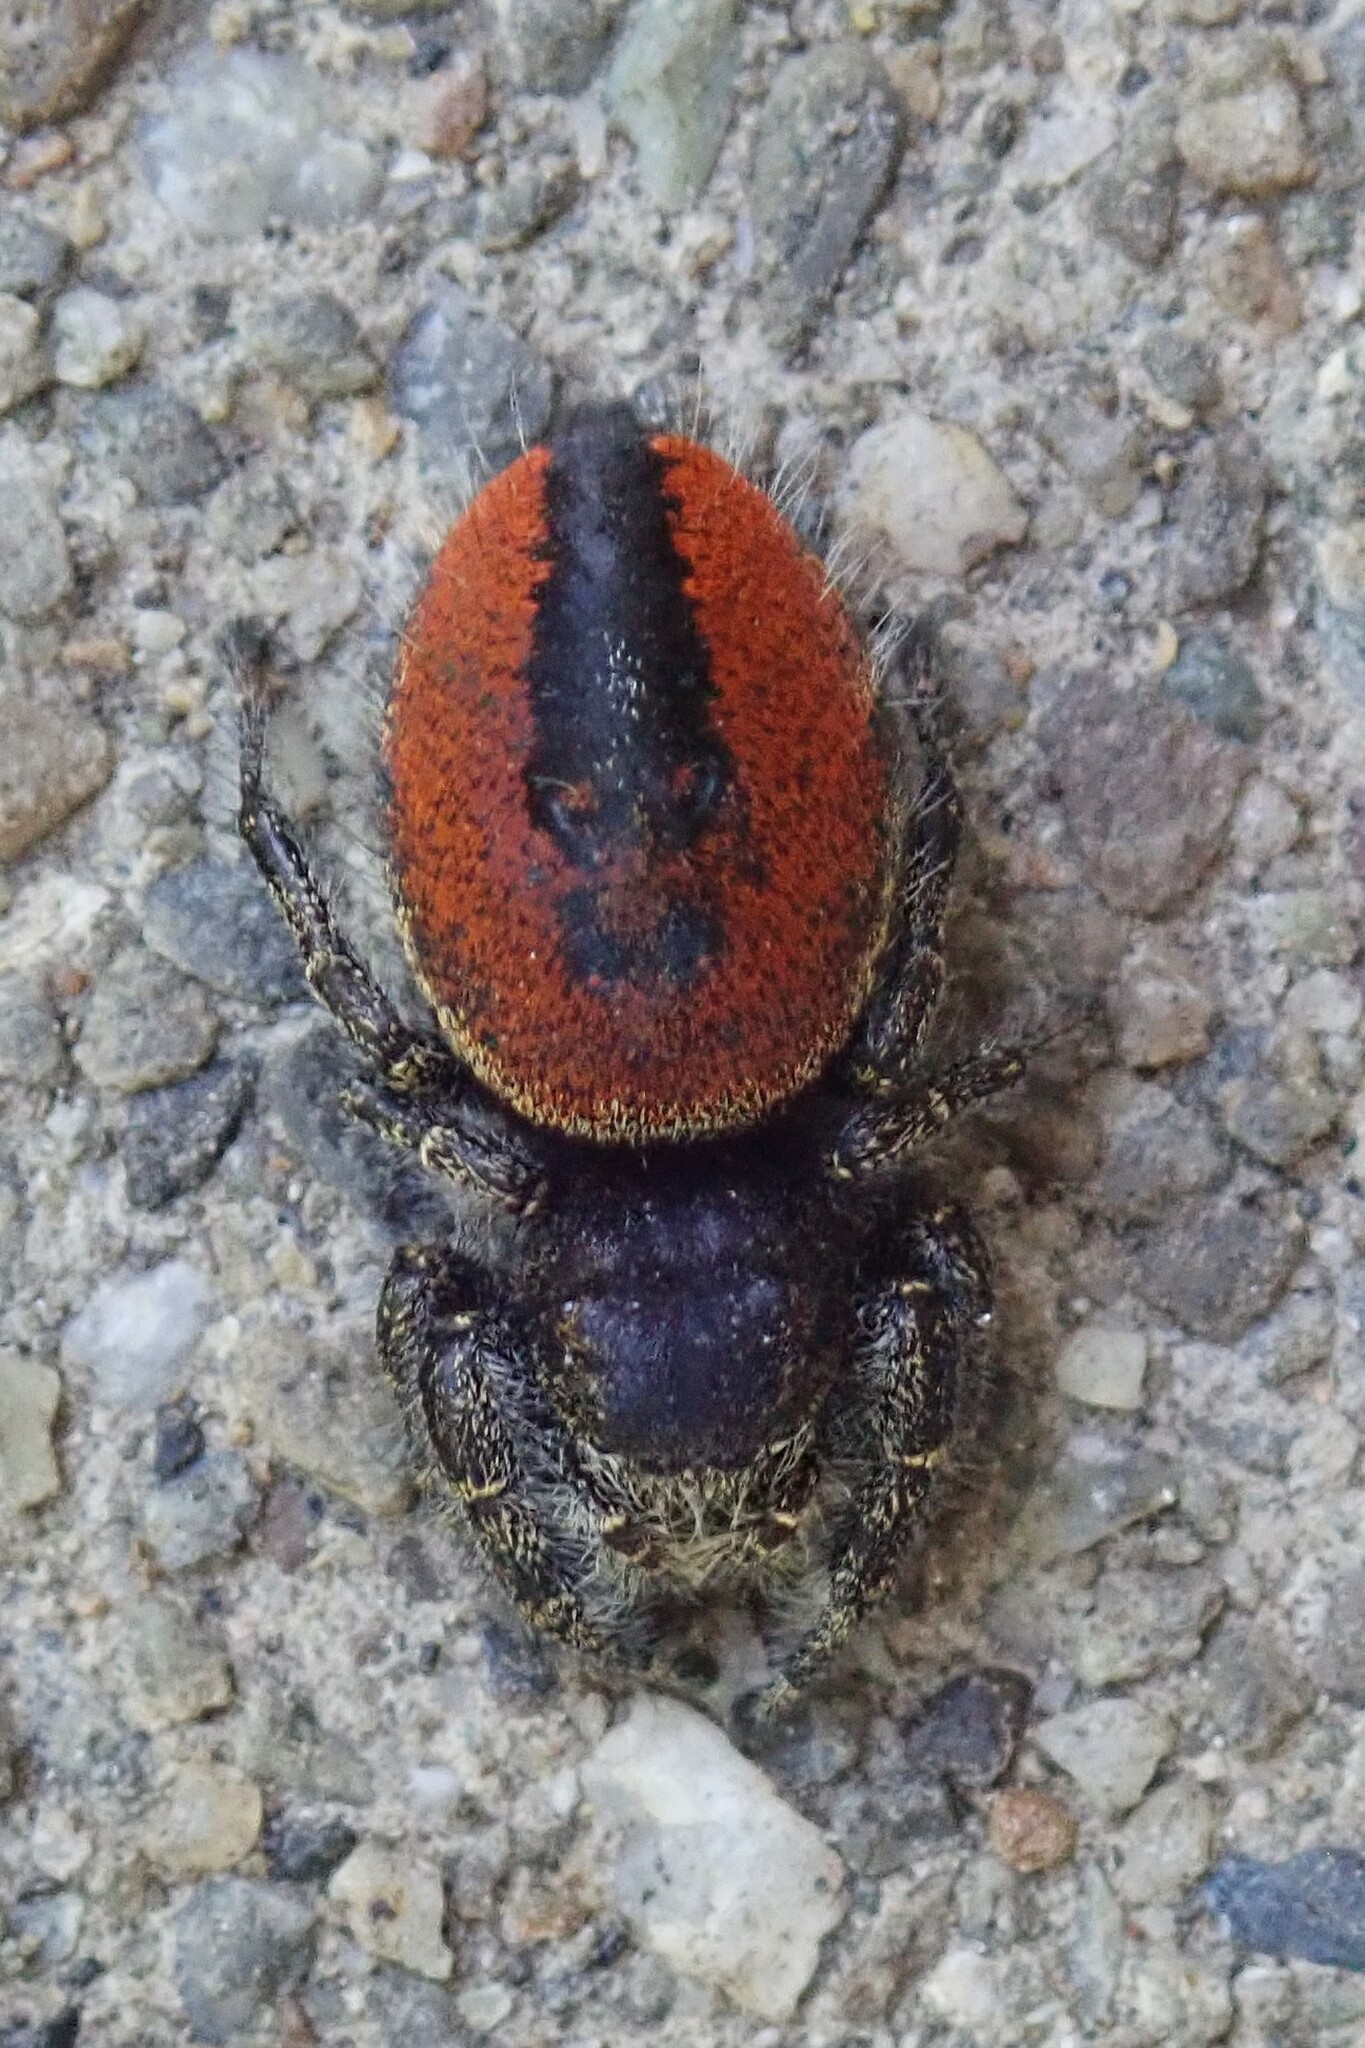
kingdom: Animalia
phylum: Arthropoda
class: Arachnida
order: Araneae
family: Salticidae
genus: Phidippus
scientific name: Phidippus johnsoni
